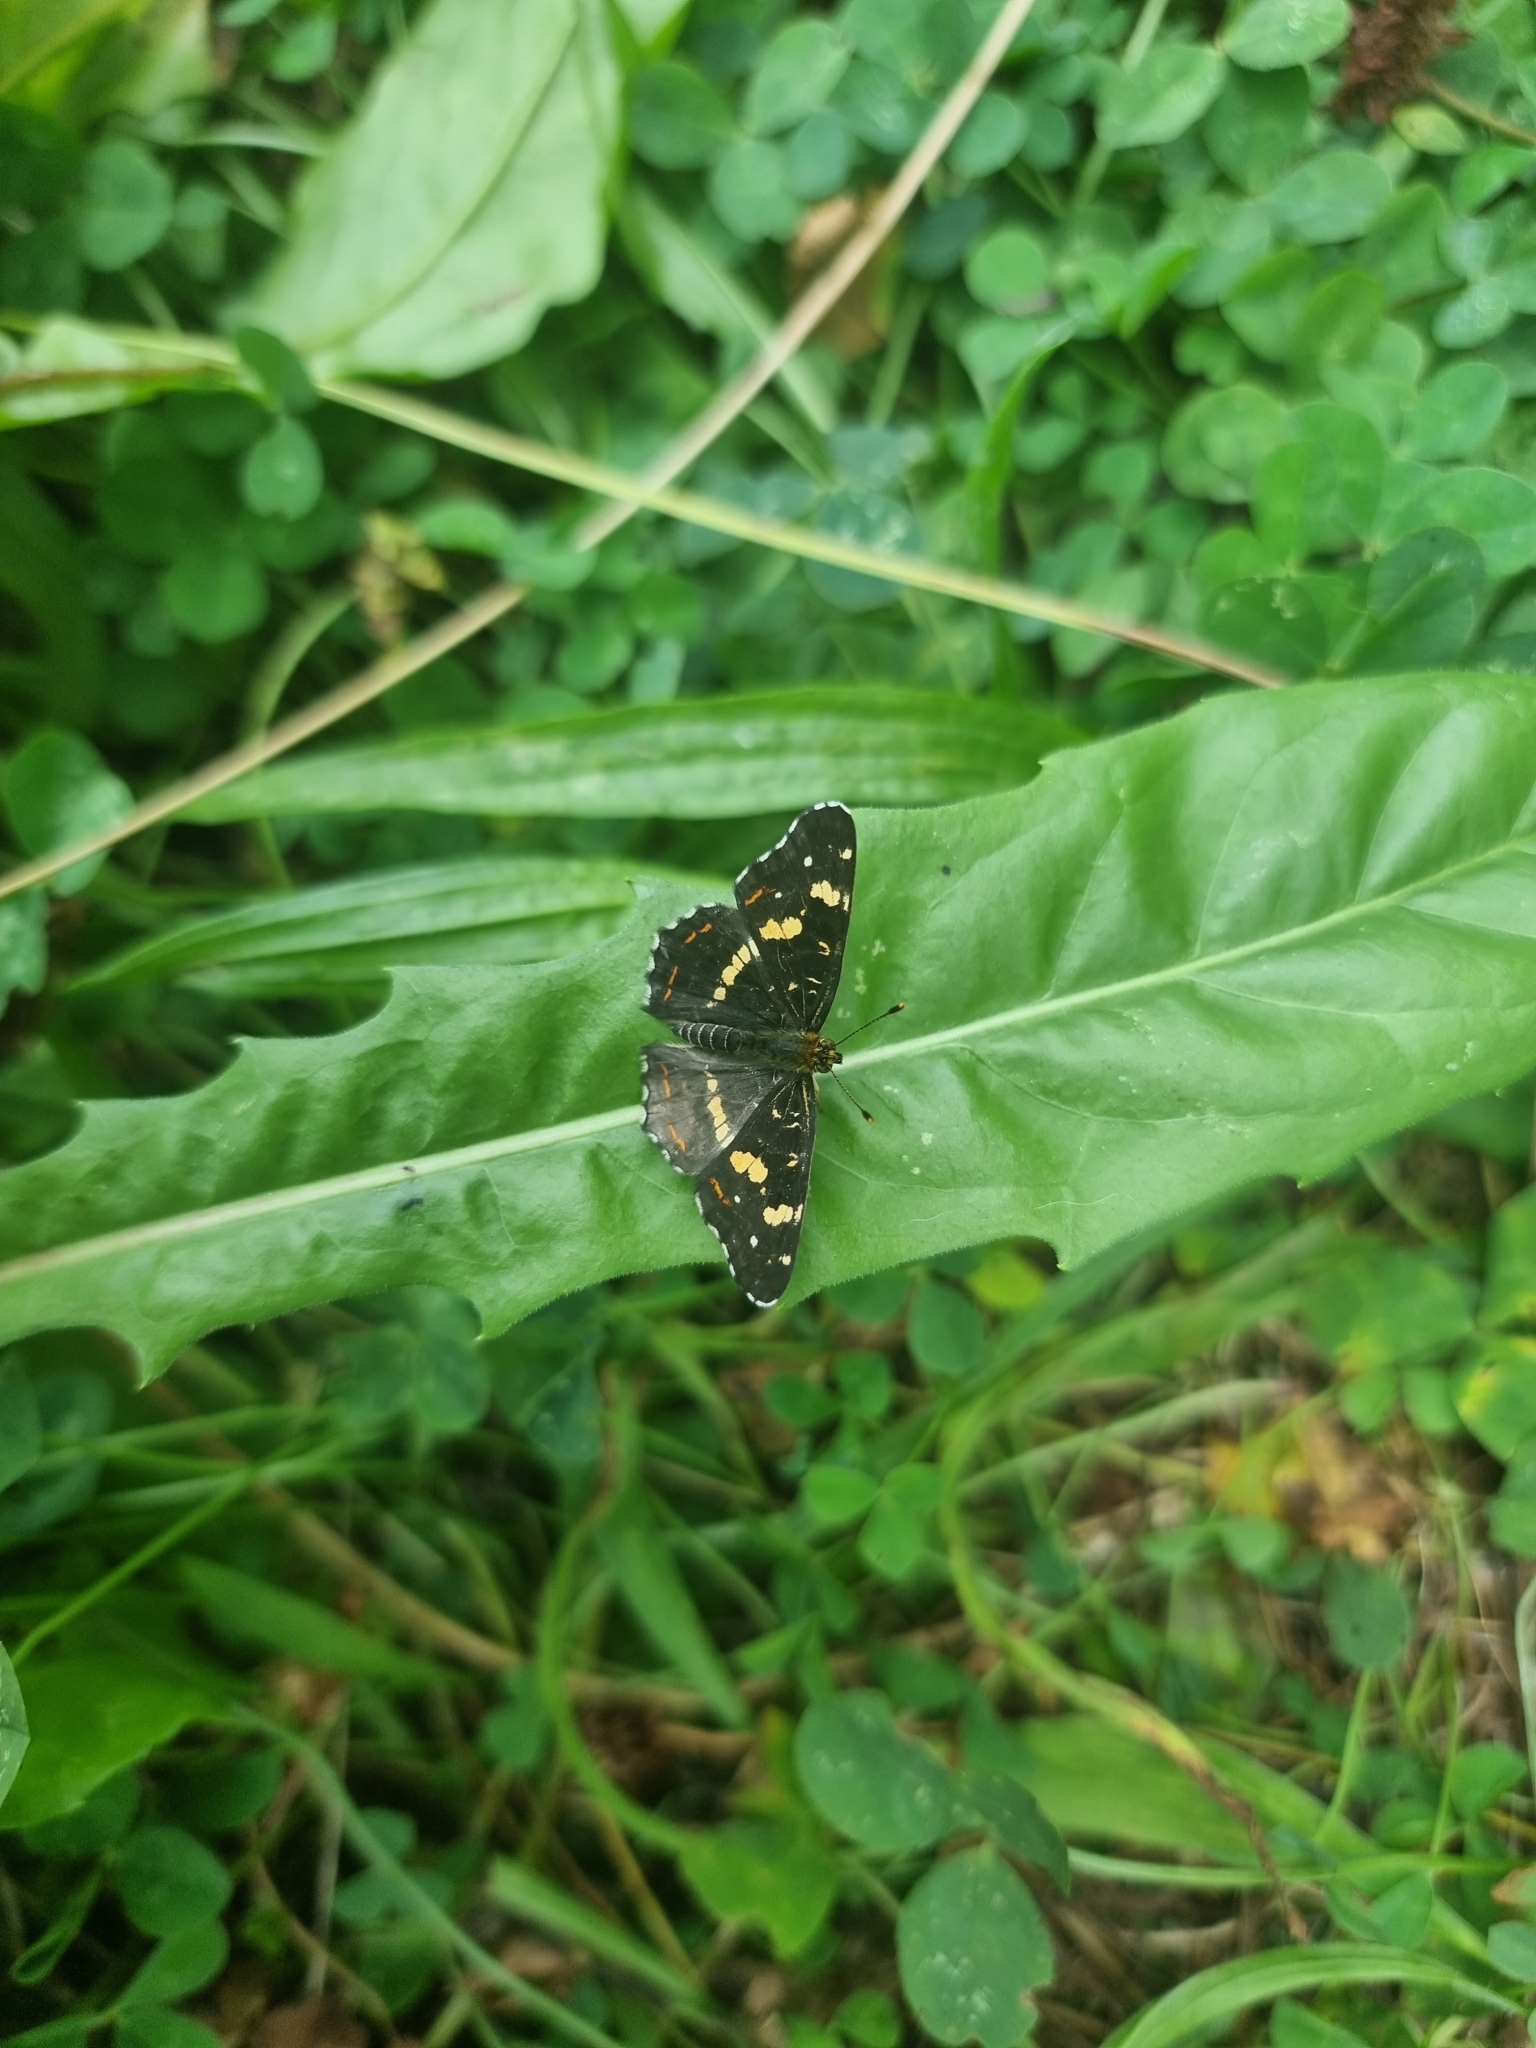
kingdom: Animalia
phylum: Arthropoda
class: Insecta
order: Lepidoptera
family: Nymphalidae
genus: Araschnia
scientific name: Araschnia levana
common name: Map butterfly
